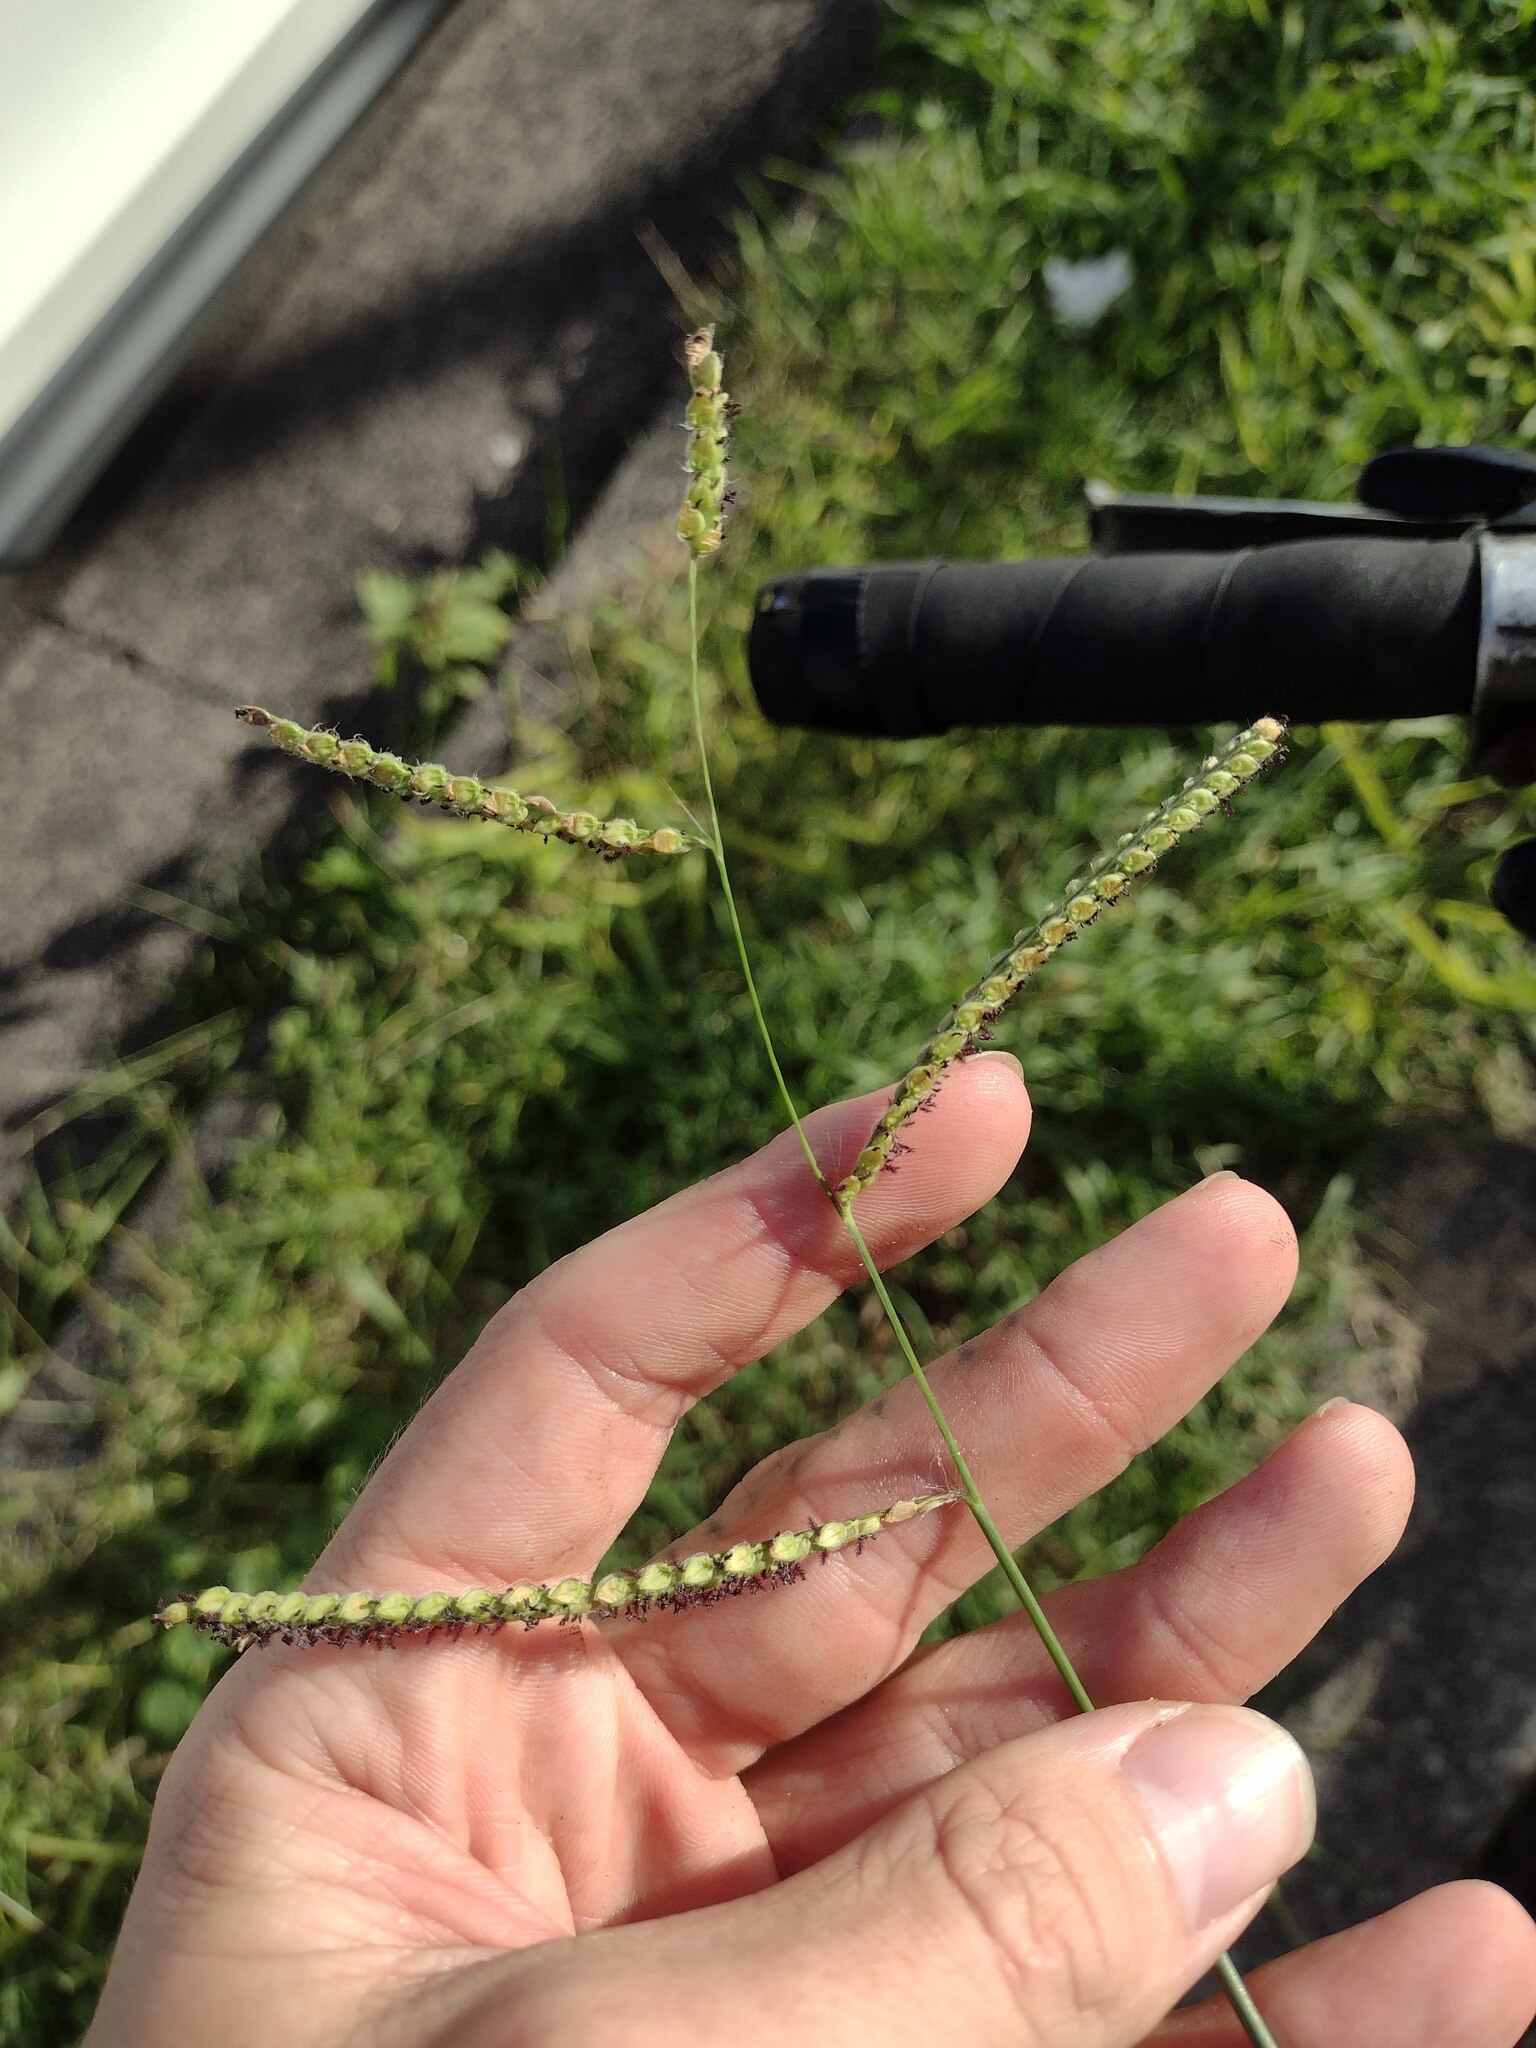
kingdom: Plantae
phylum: Tracheophyta
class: Liliopsida
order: Poales
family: Poaceae
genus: Paspalum
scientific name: Paspalum dilatatum
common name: Dallisgrass
